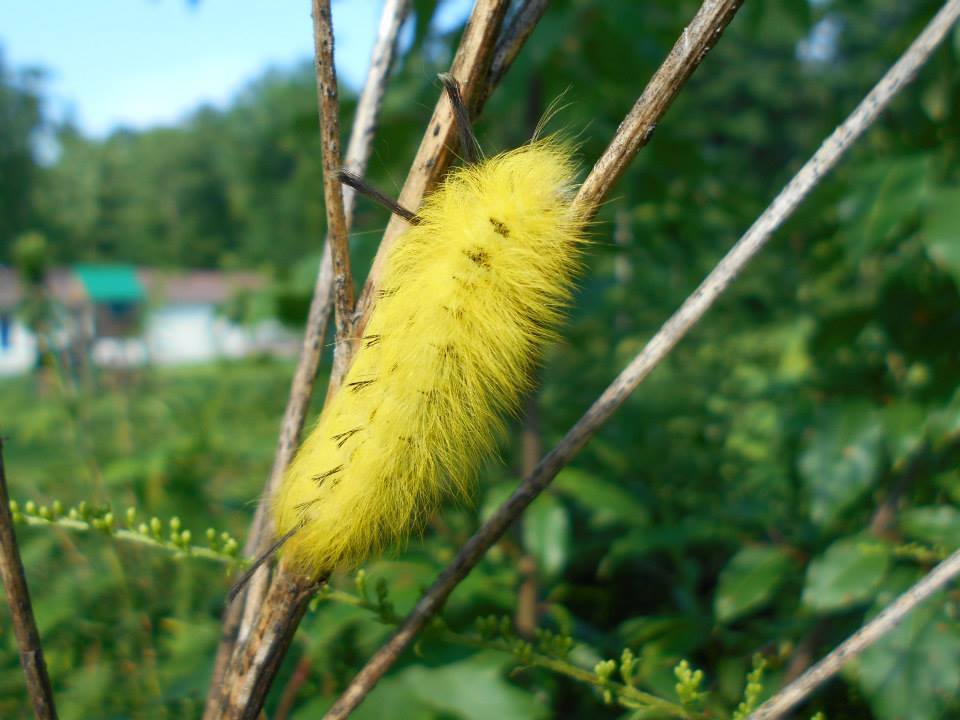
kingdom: Animalia
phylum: Arthropoda
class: Insecta
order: Lepidoptera
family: Apatelodidae
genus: Hygrochroa
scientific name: Hygrochroa Apatelodes torrefacta
